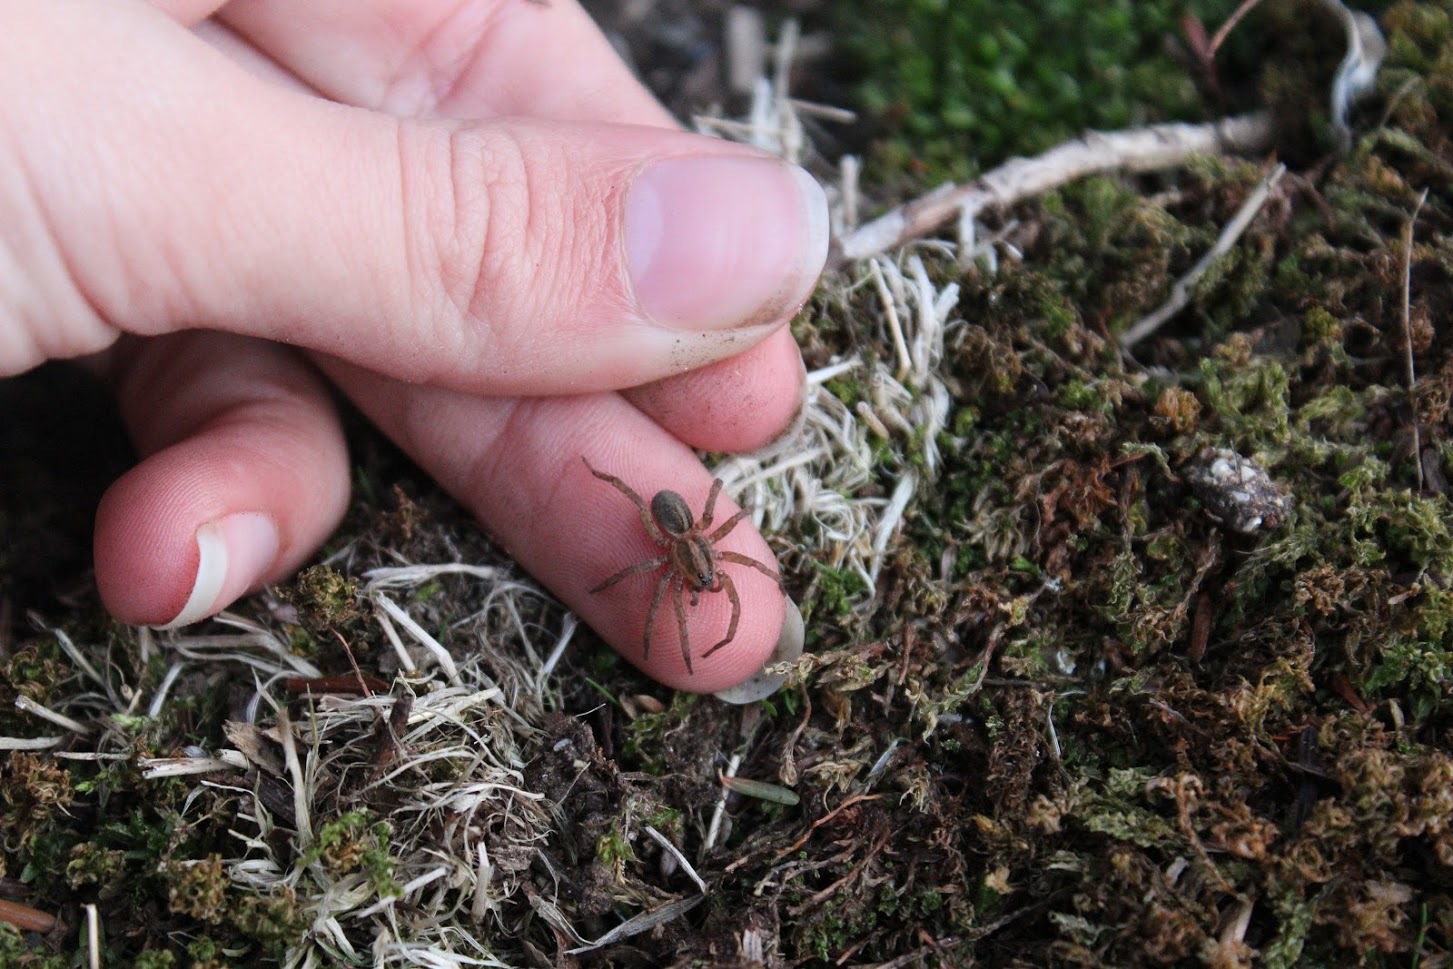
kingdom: Animalia
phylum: Arthropoda
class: Arachnida
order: Araneae
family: Lycosidae
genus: Trochosa
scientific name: Trochosa
